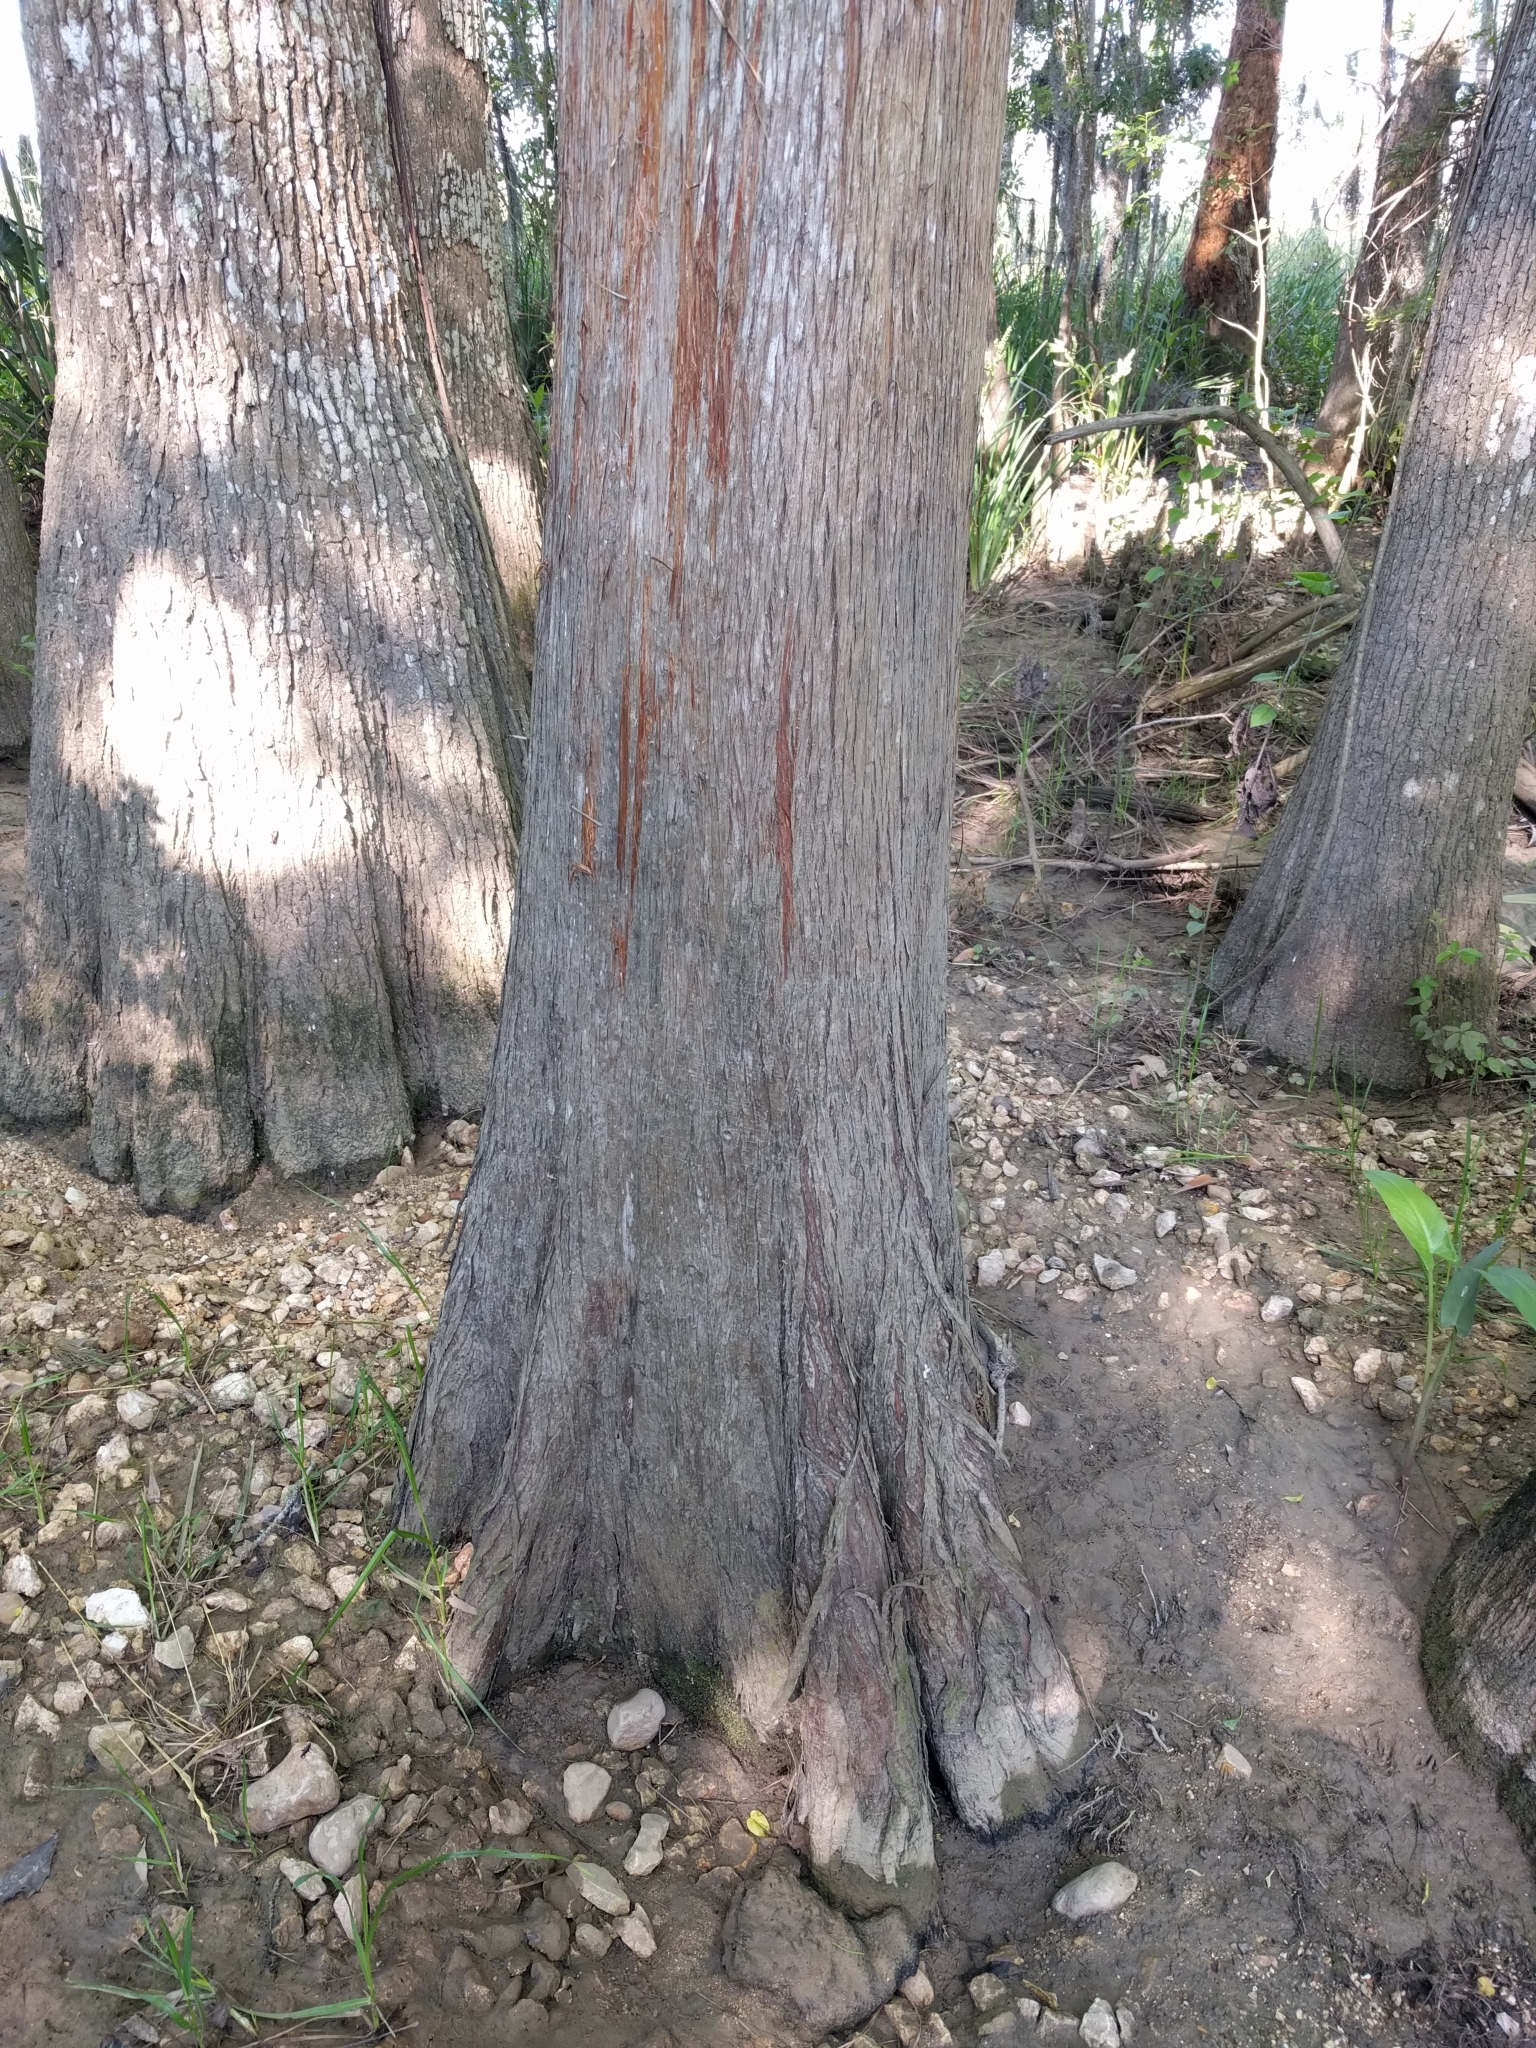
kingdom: Plantae
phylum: Tracheophyta
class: Pinopsida
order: Pinales
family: Cupressaceae
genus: Taxodium
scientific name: Taxodium distichum
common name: Bald cypress
